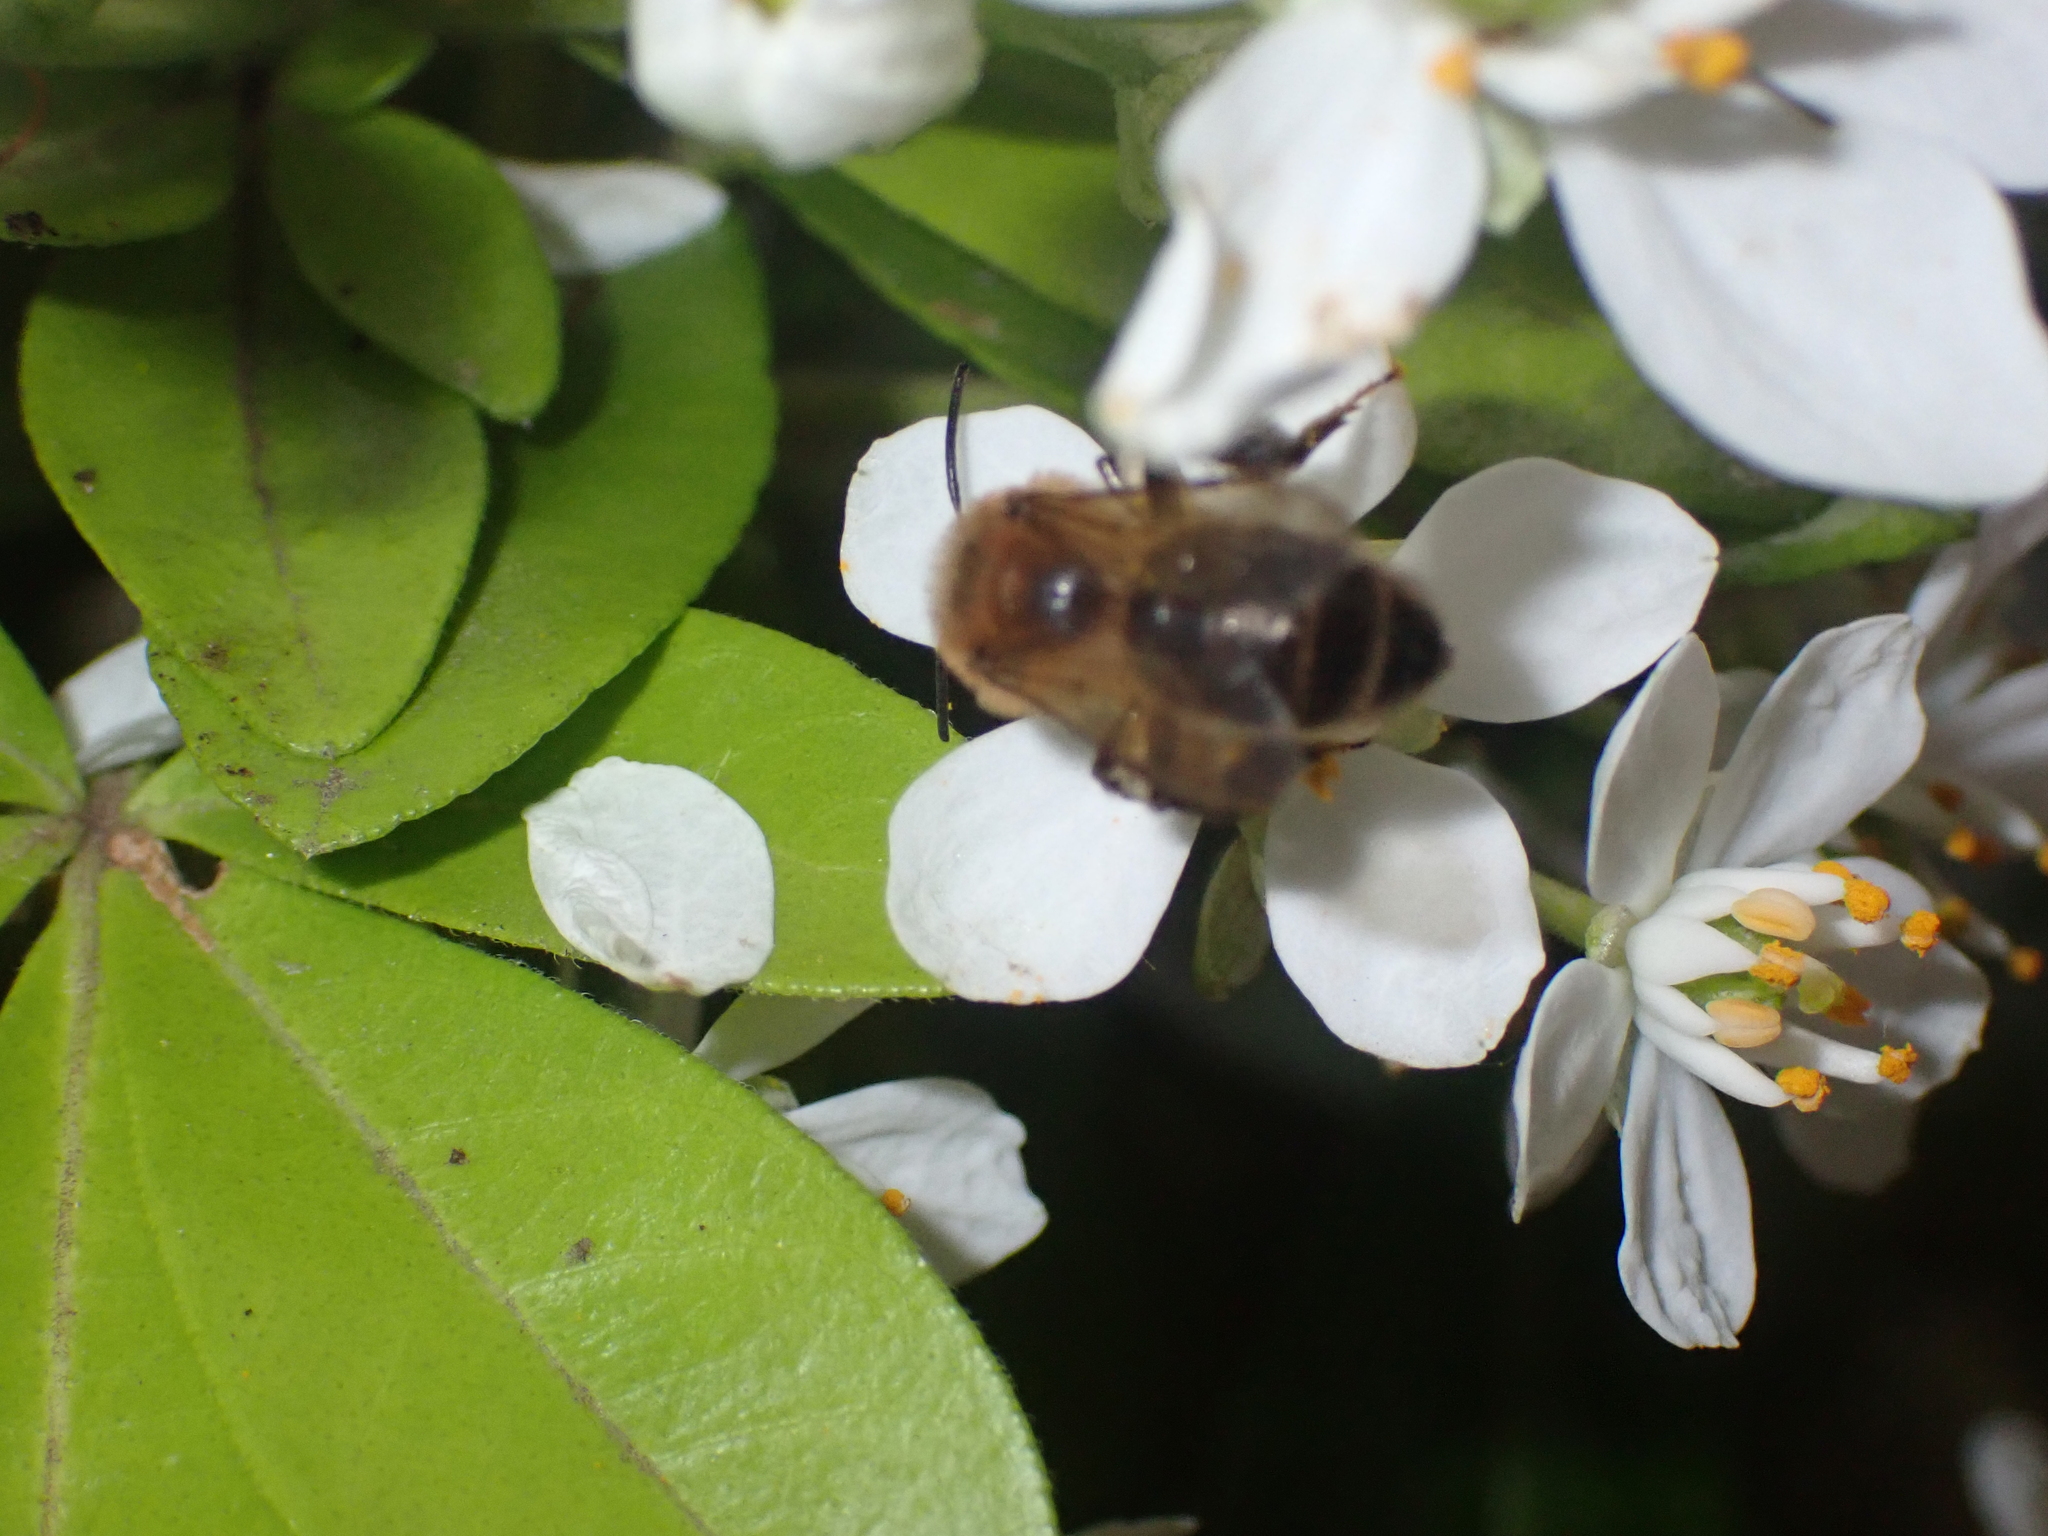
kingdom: Animalia
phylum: Arthropoda
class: Insecta
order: Hymenoptera
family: Apidae
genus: Apis
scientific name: Apis mellifera
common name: Honey bee
